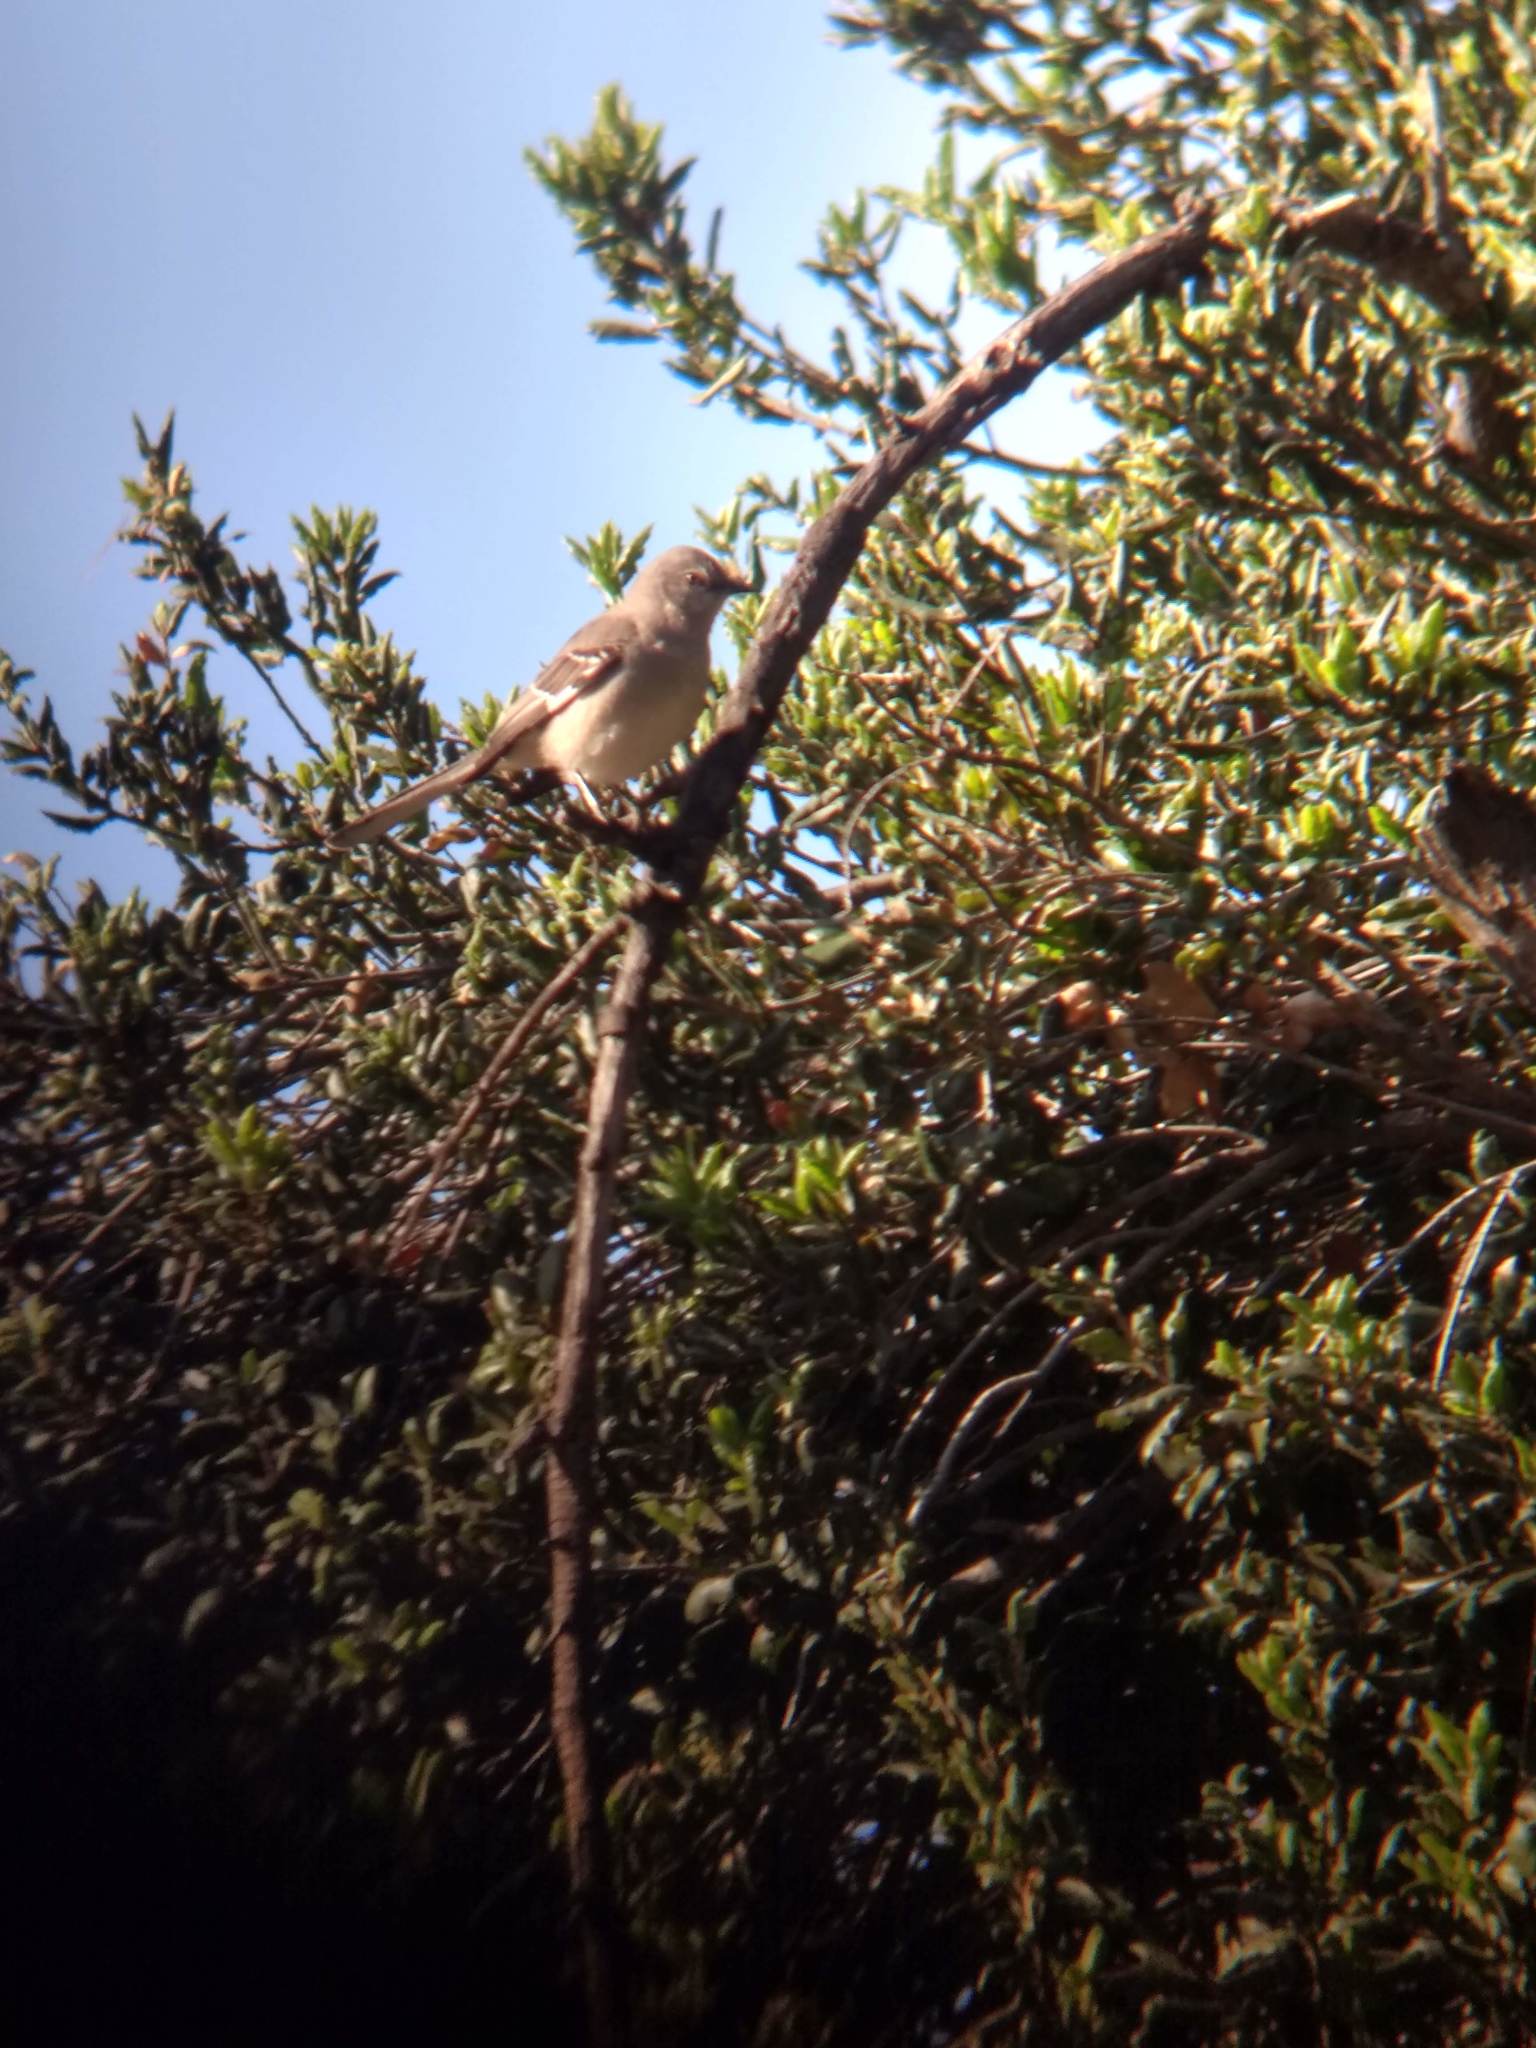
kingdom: Animalia
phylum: Chordata
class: Aves
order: Passeriformes
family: Mimidae
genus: Mimus
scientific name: Mimus polyglottos
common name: Northern mockingbird
